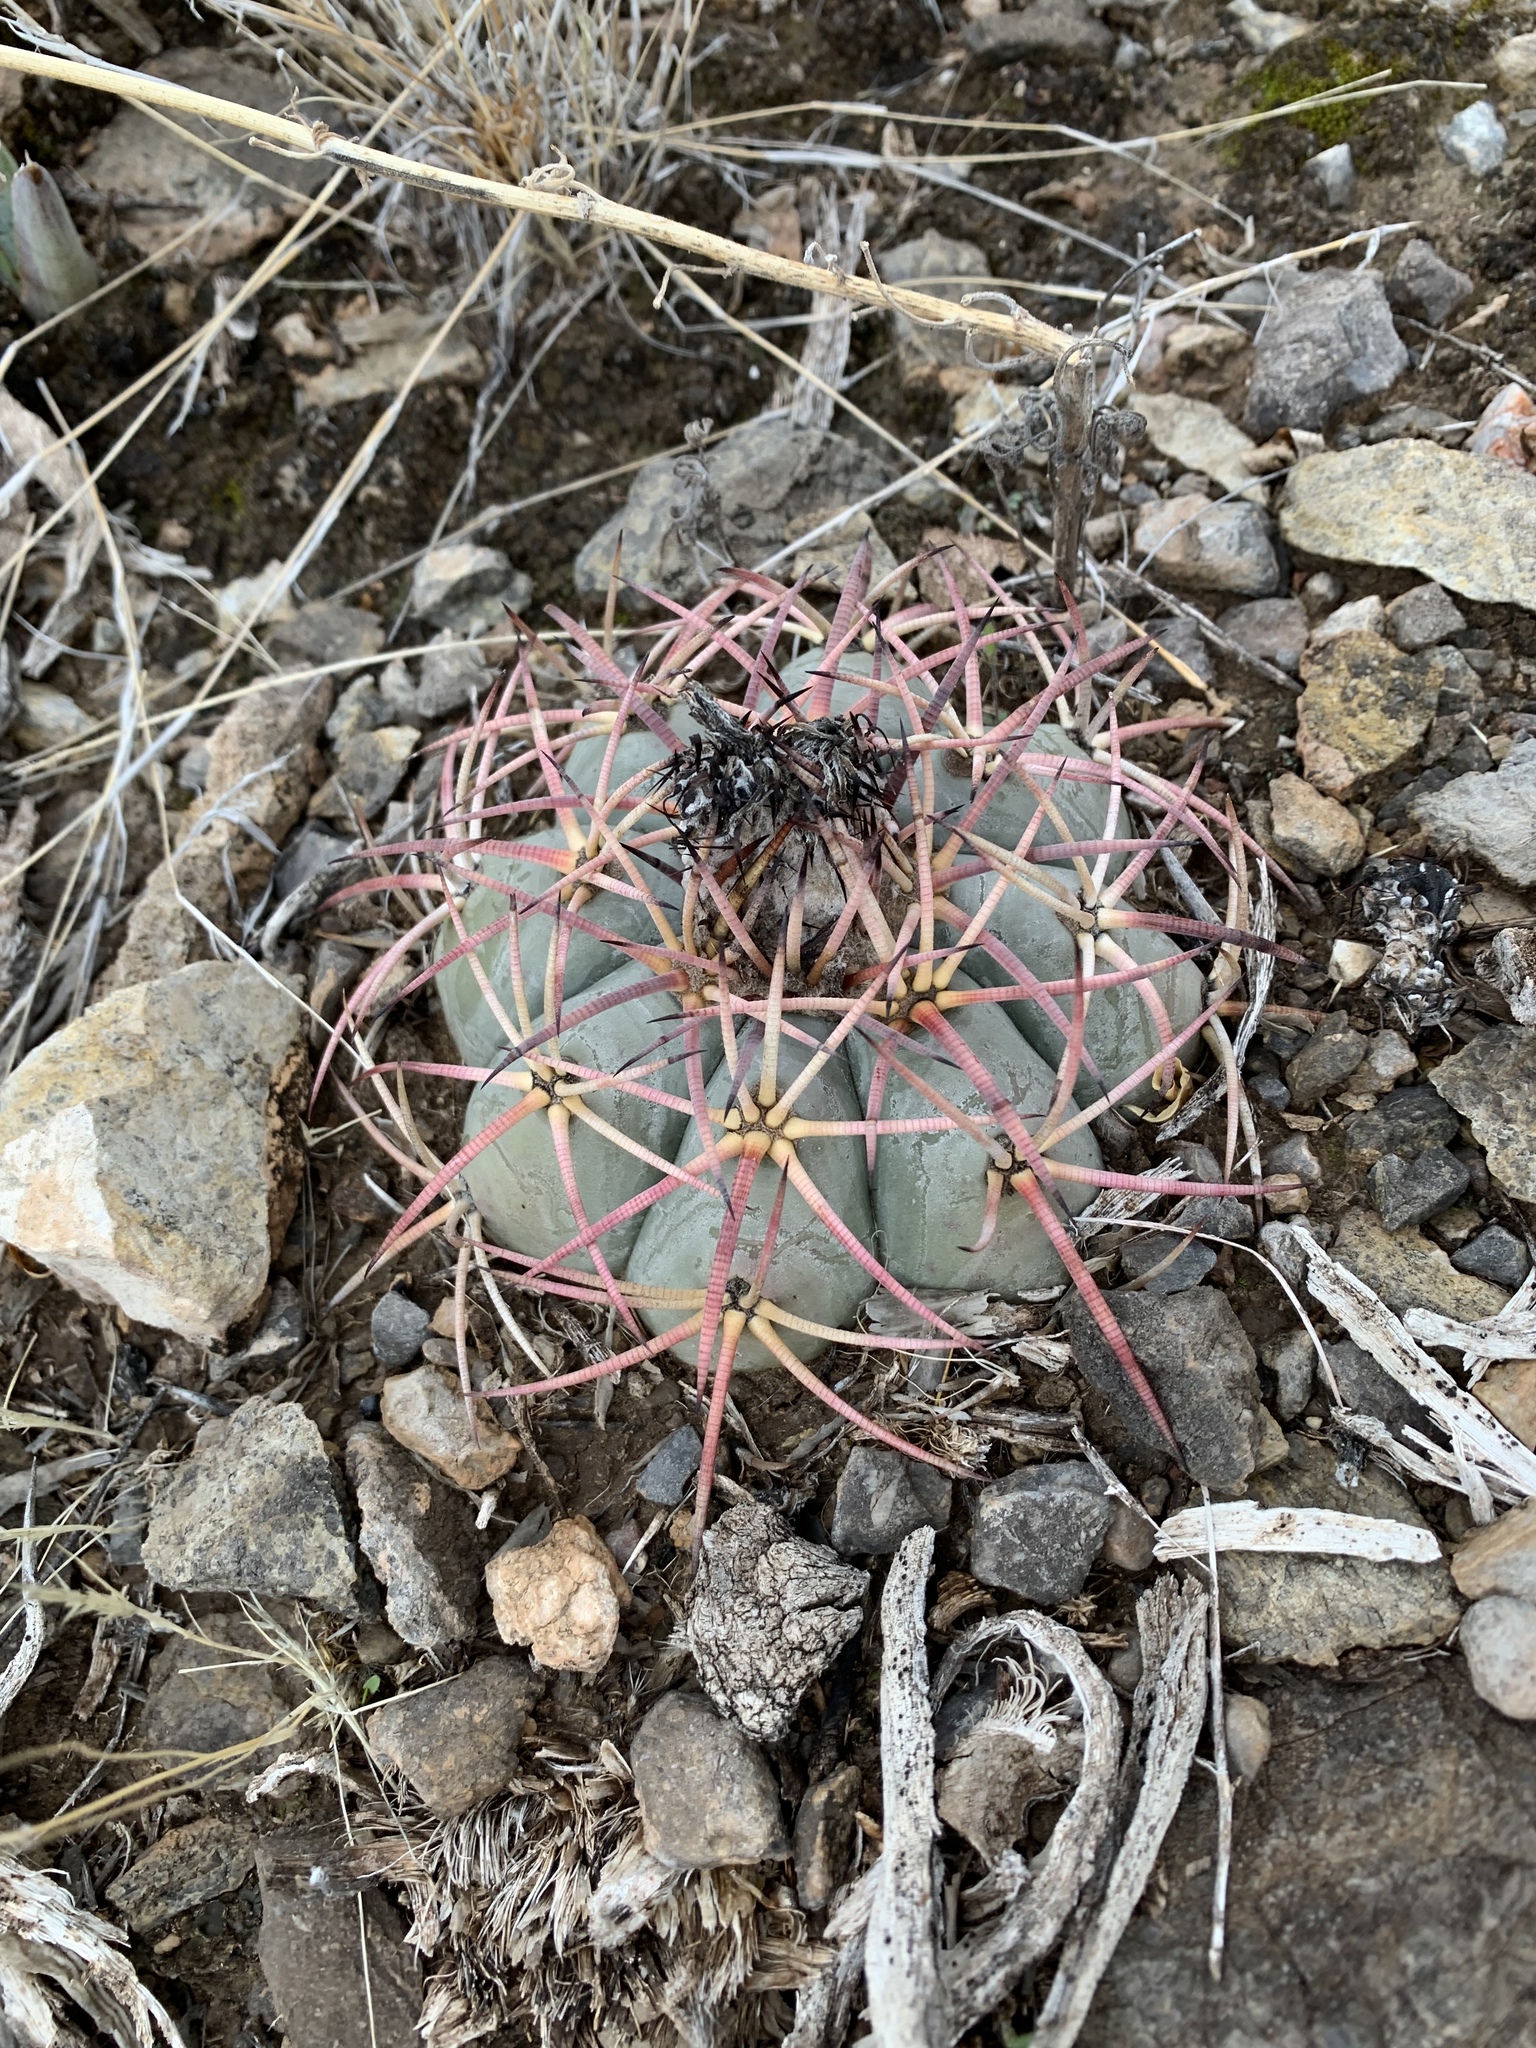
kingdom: Plantae
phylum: Tracheophyta
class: Magnoliopsida
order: Caryophyllales
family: Cactaceae
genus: Echinocactus
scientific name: Echinocactus horizonthalonius
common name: Devilshead
